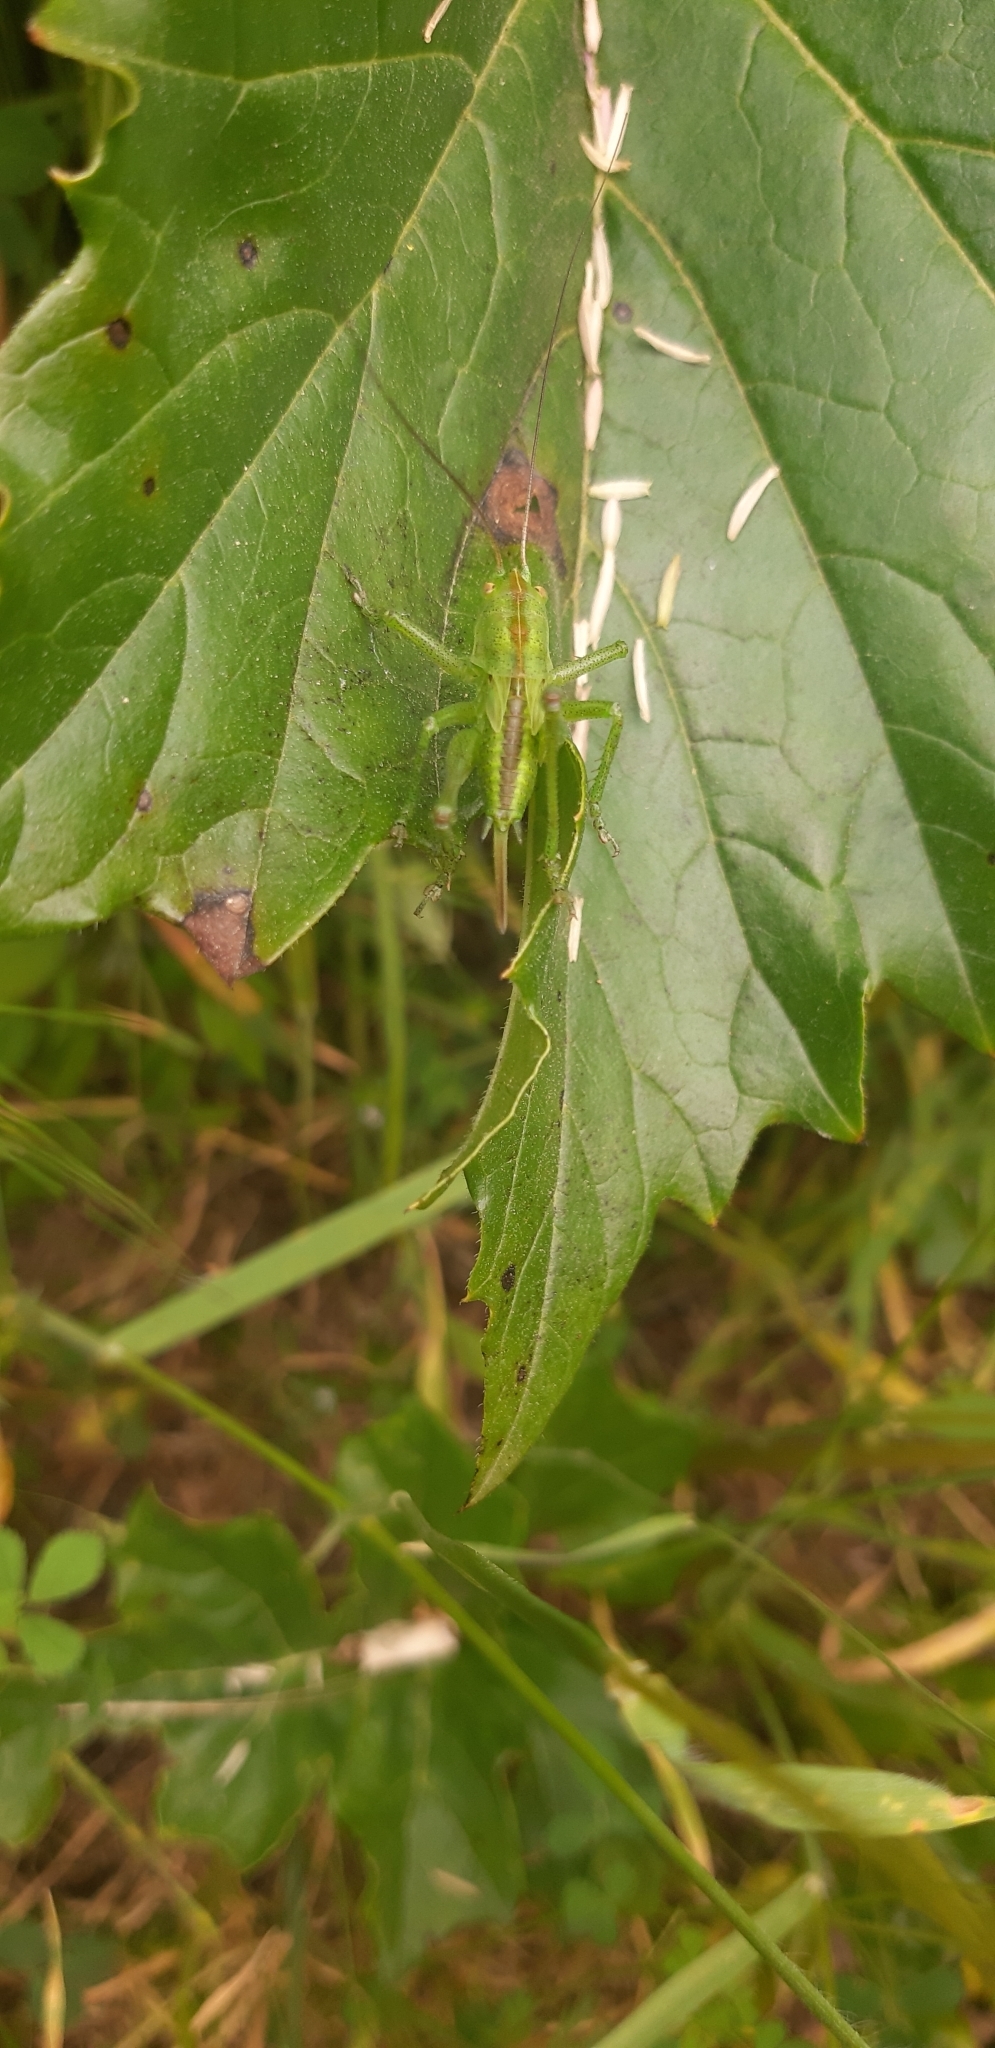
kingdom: Animalia
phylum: Arthropoda
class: Insecta
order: Orthoptera
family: Tettigoniidae
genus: Tettigonia
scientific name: Tettigonia viridissima
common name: Great green bush-cricket
